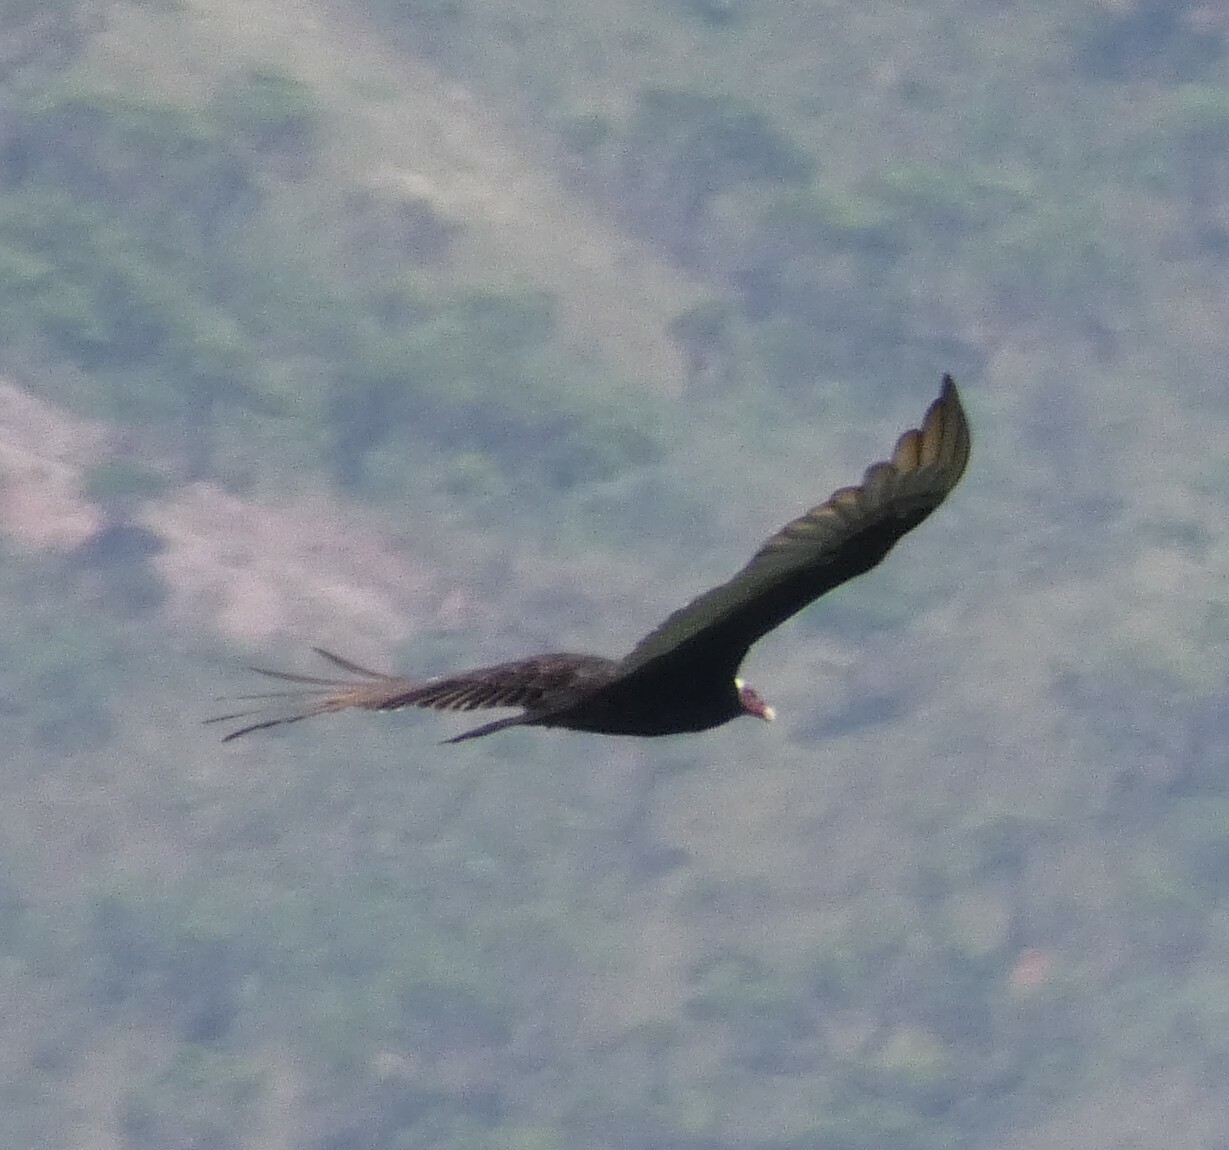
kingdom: Animalia
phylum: Chordata
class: Aves
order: Accipitriformes
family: Cathartidae
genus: Cathartes
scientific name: Cathartes aura
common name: Turkey vulture
